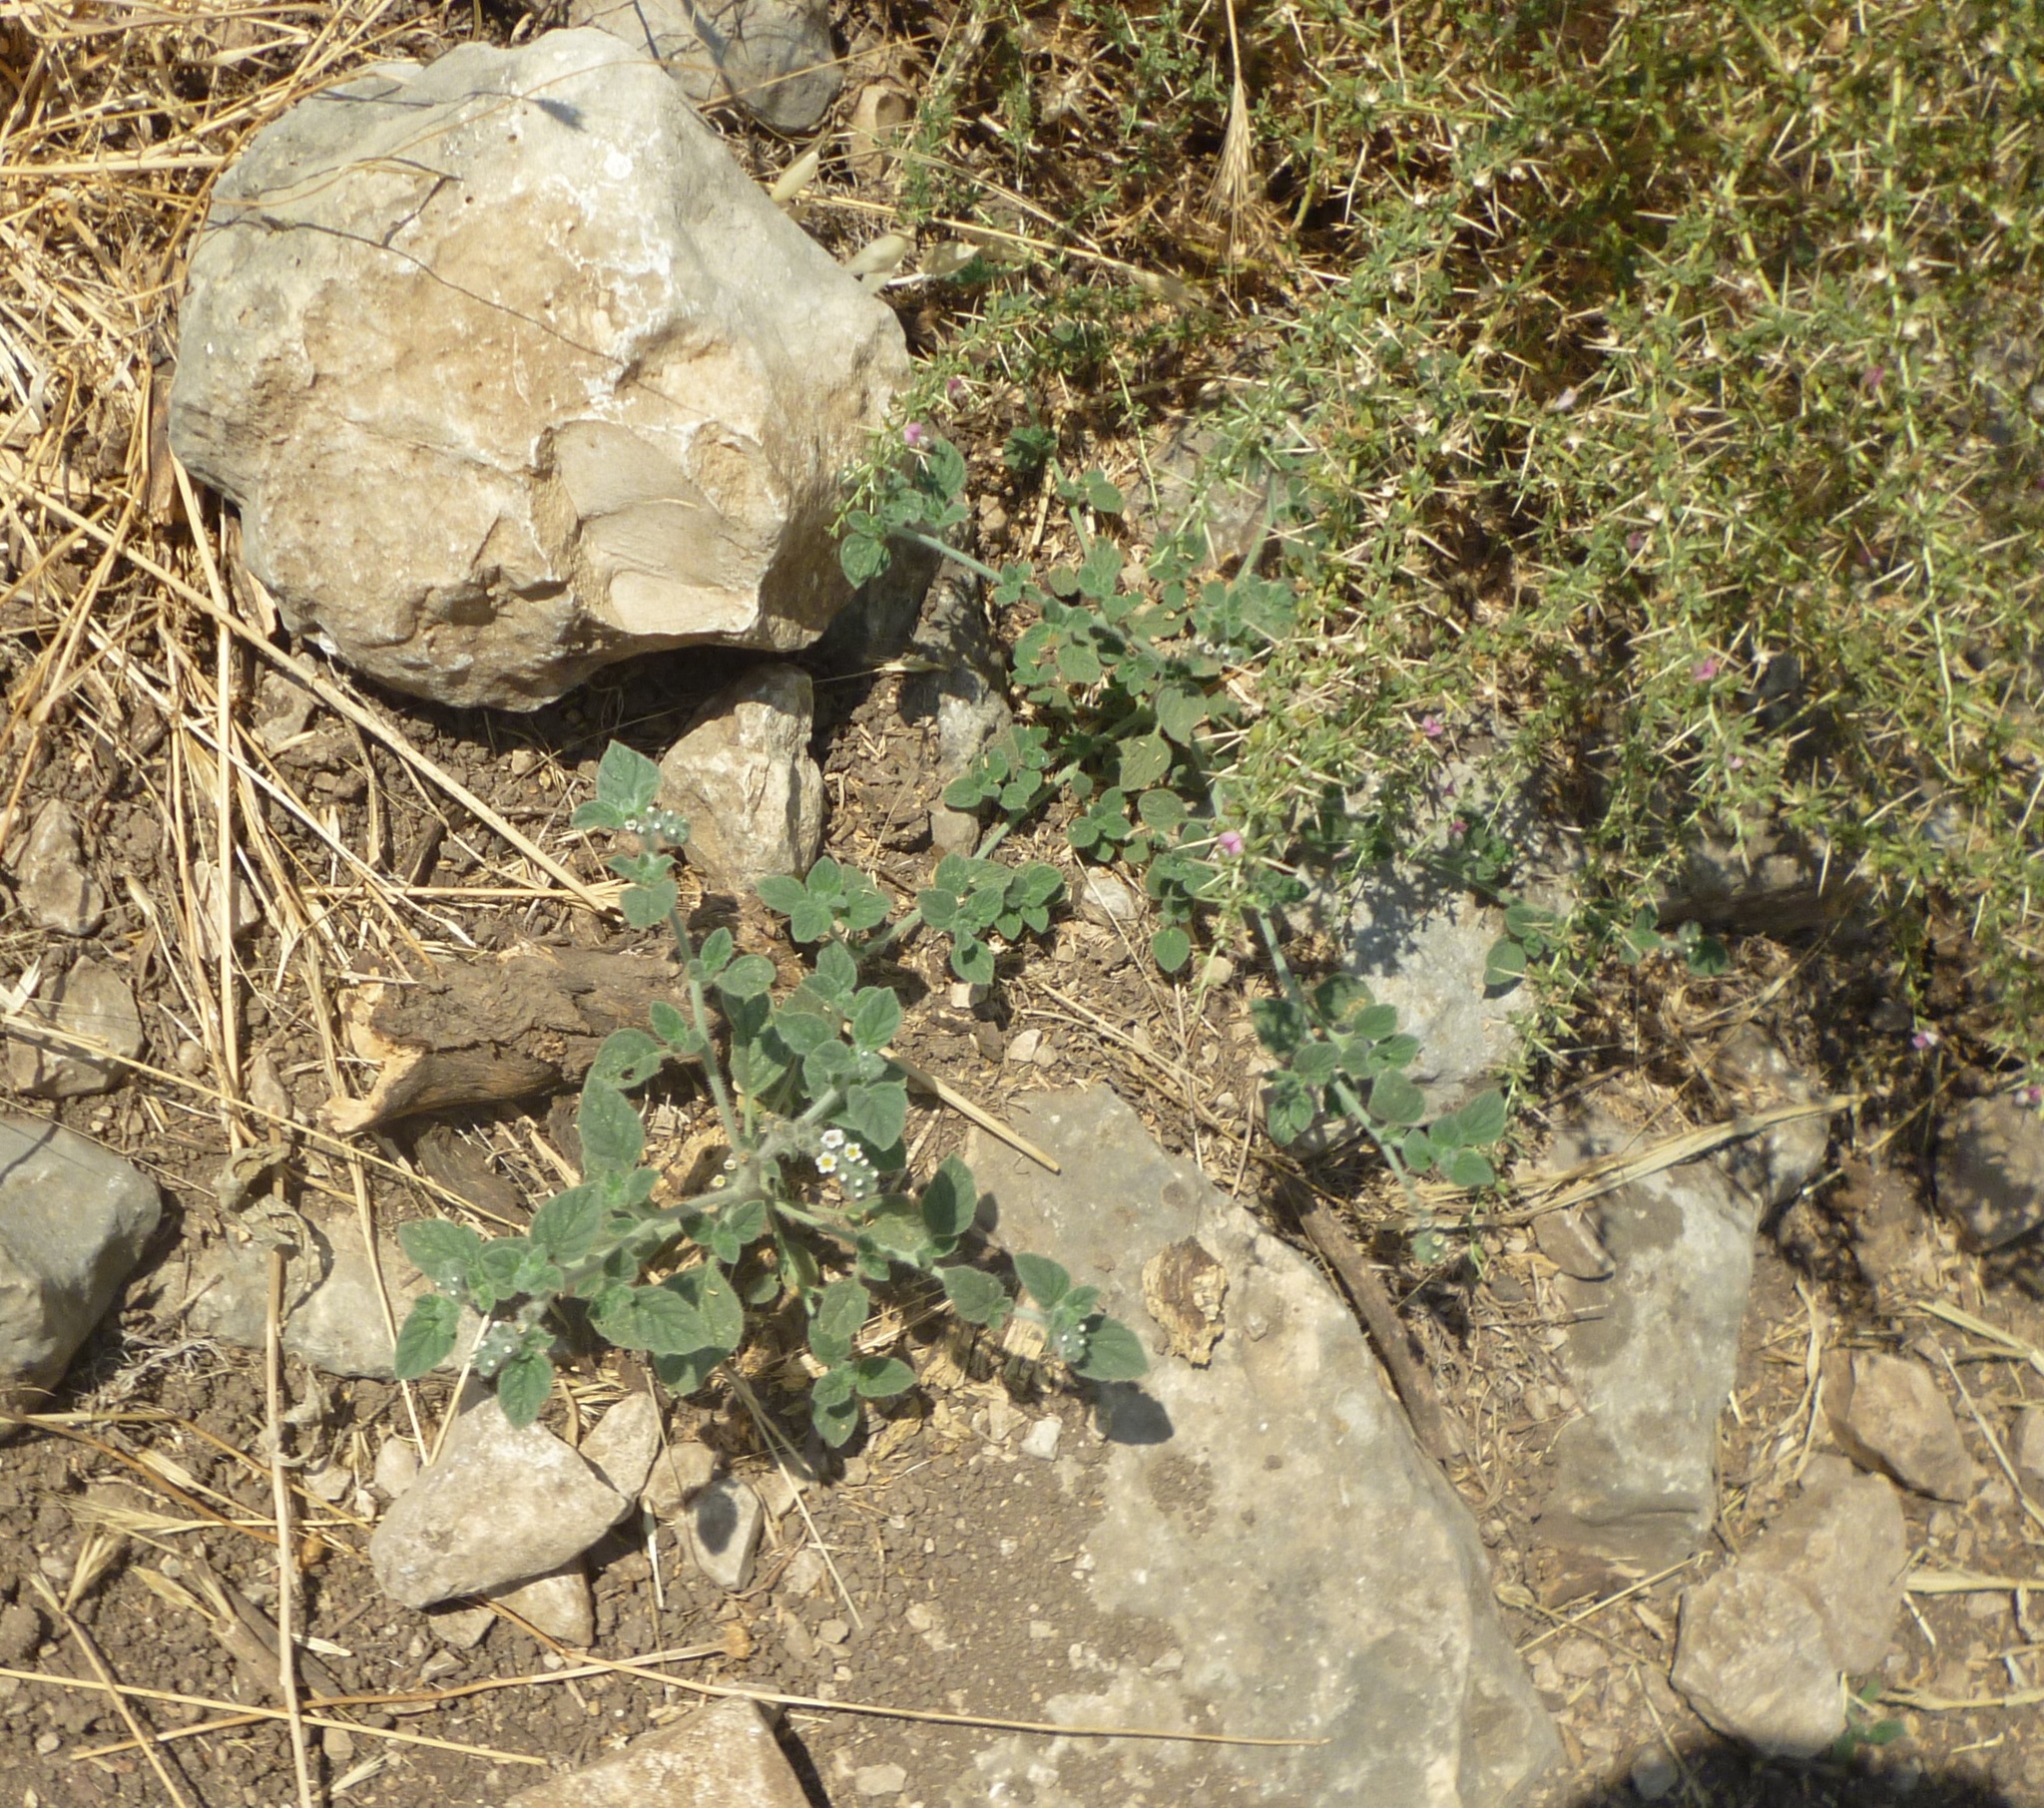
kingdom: Plantae
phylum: Tracheophyta
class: Magnoliopsida
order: Boraginales
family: Heliotropiaceae
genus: Heliotropium
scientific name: Heliotropium
